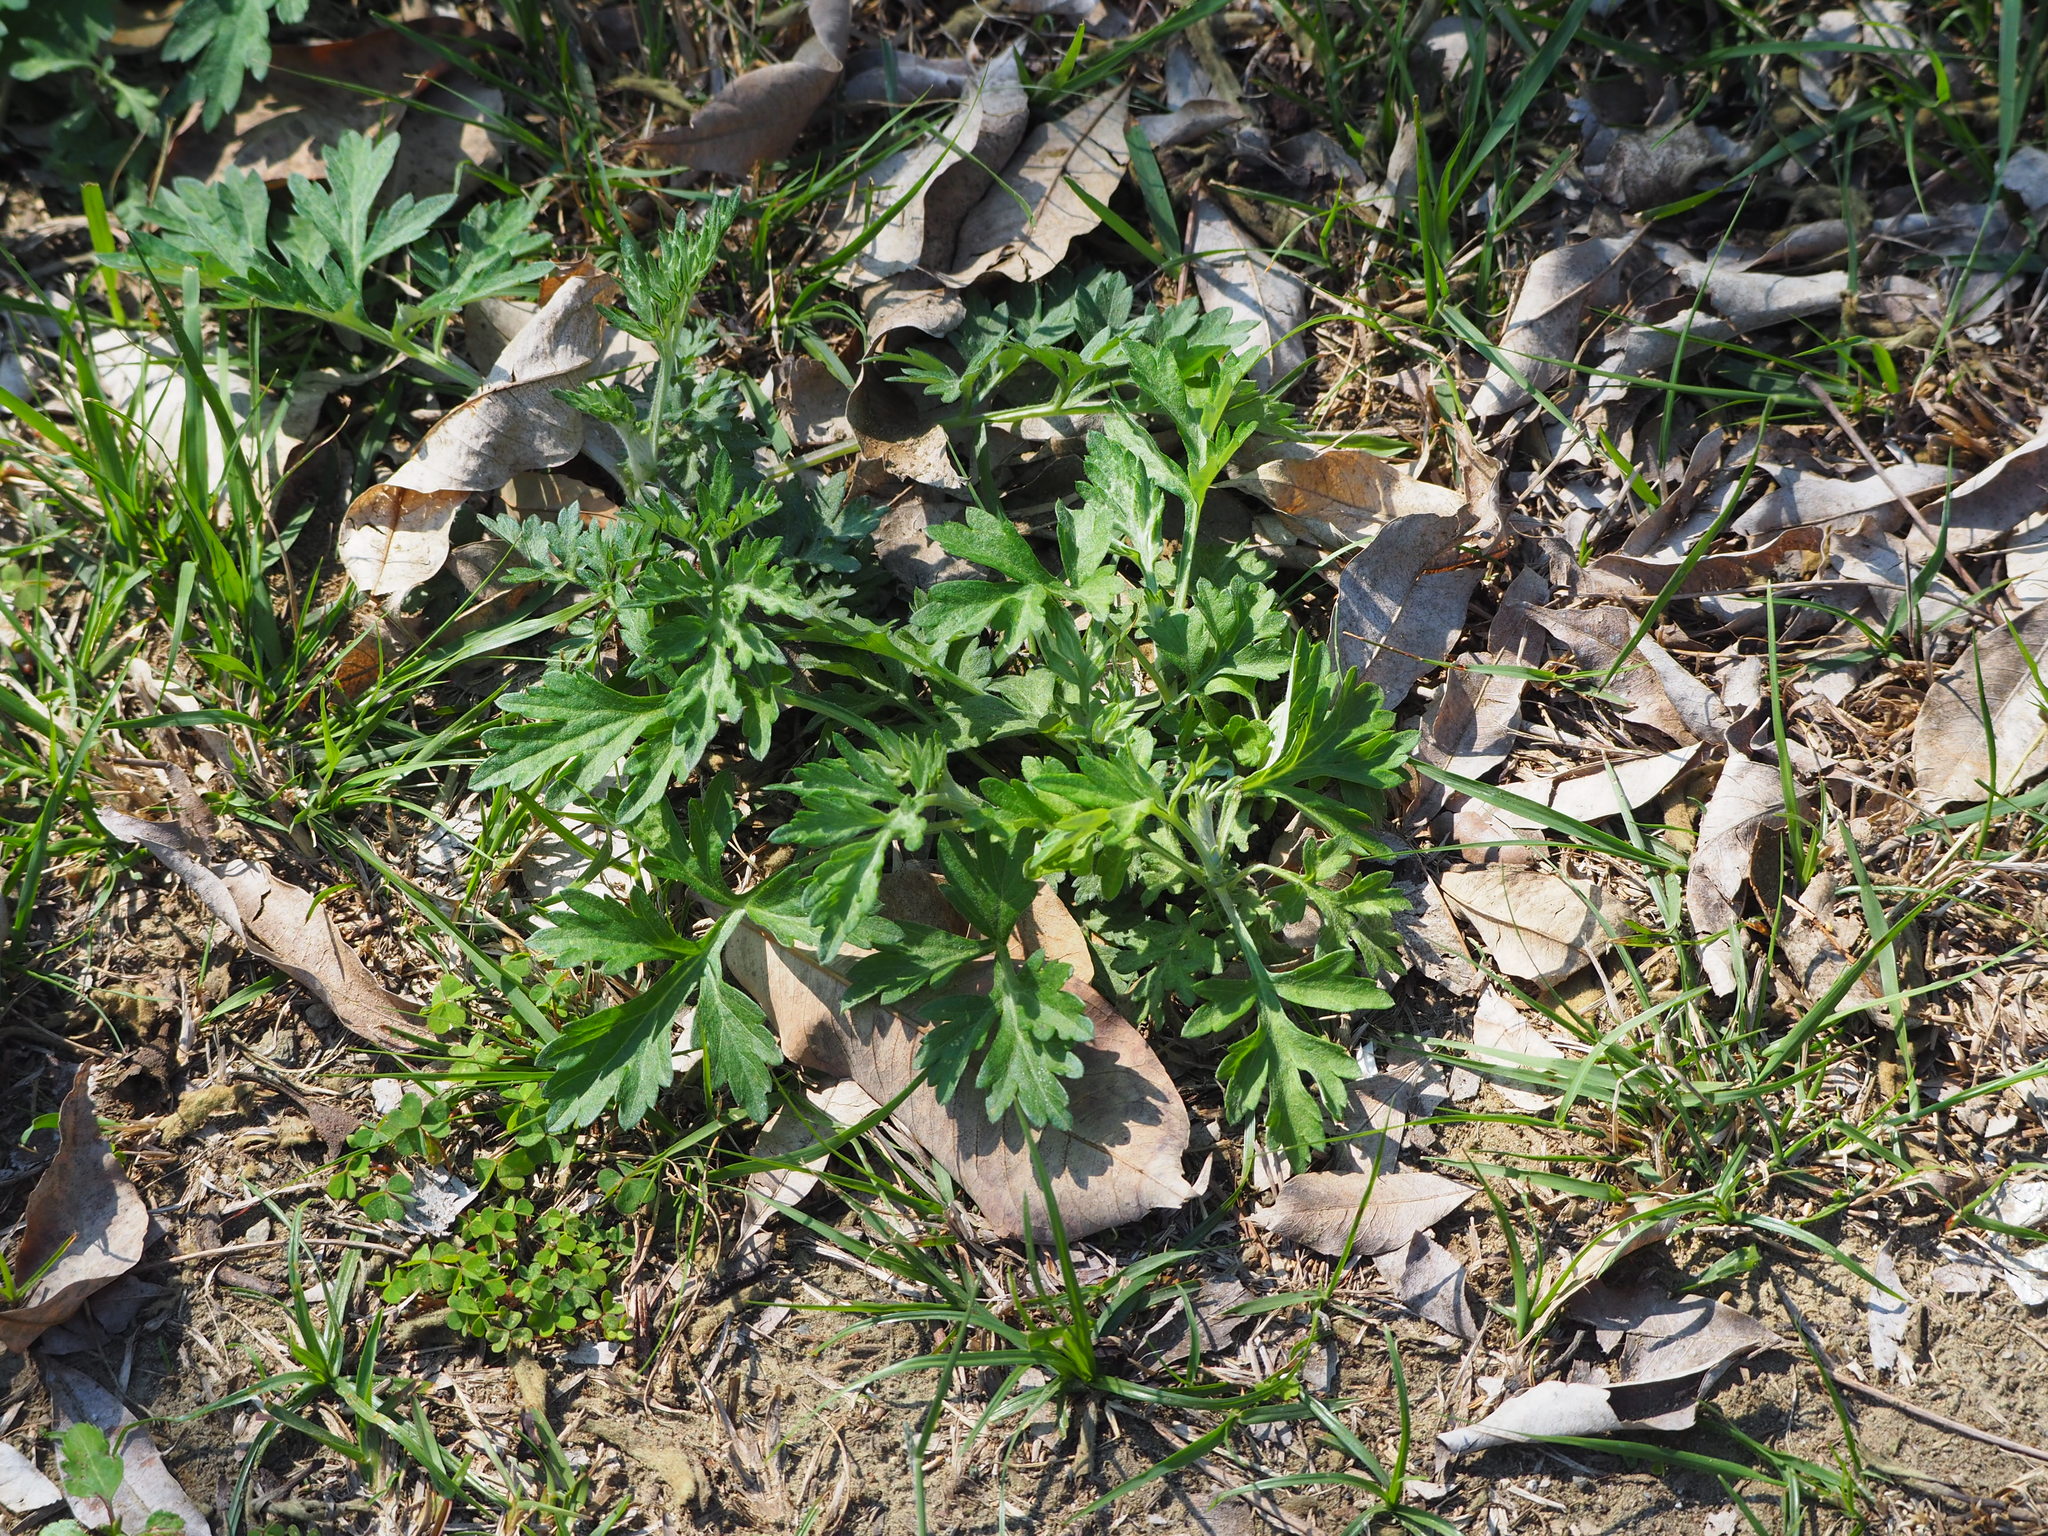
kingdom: Plantae
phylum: Tracheophyta
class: Magnoliopsida
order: Asterales
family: Asteraceae
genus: Artemisia
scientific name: Artemisia indica
